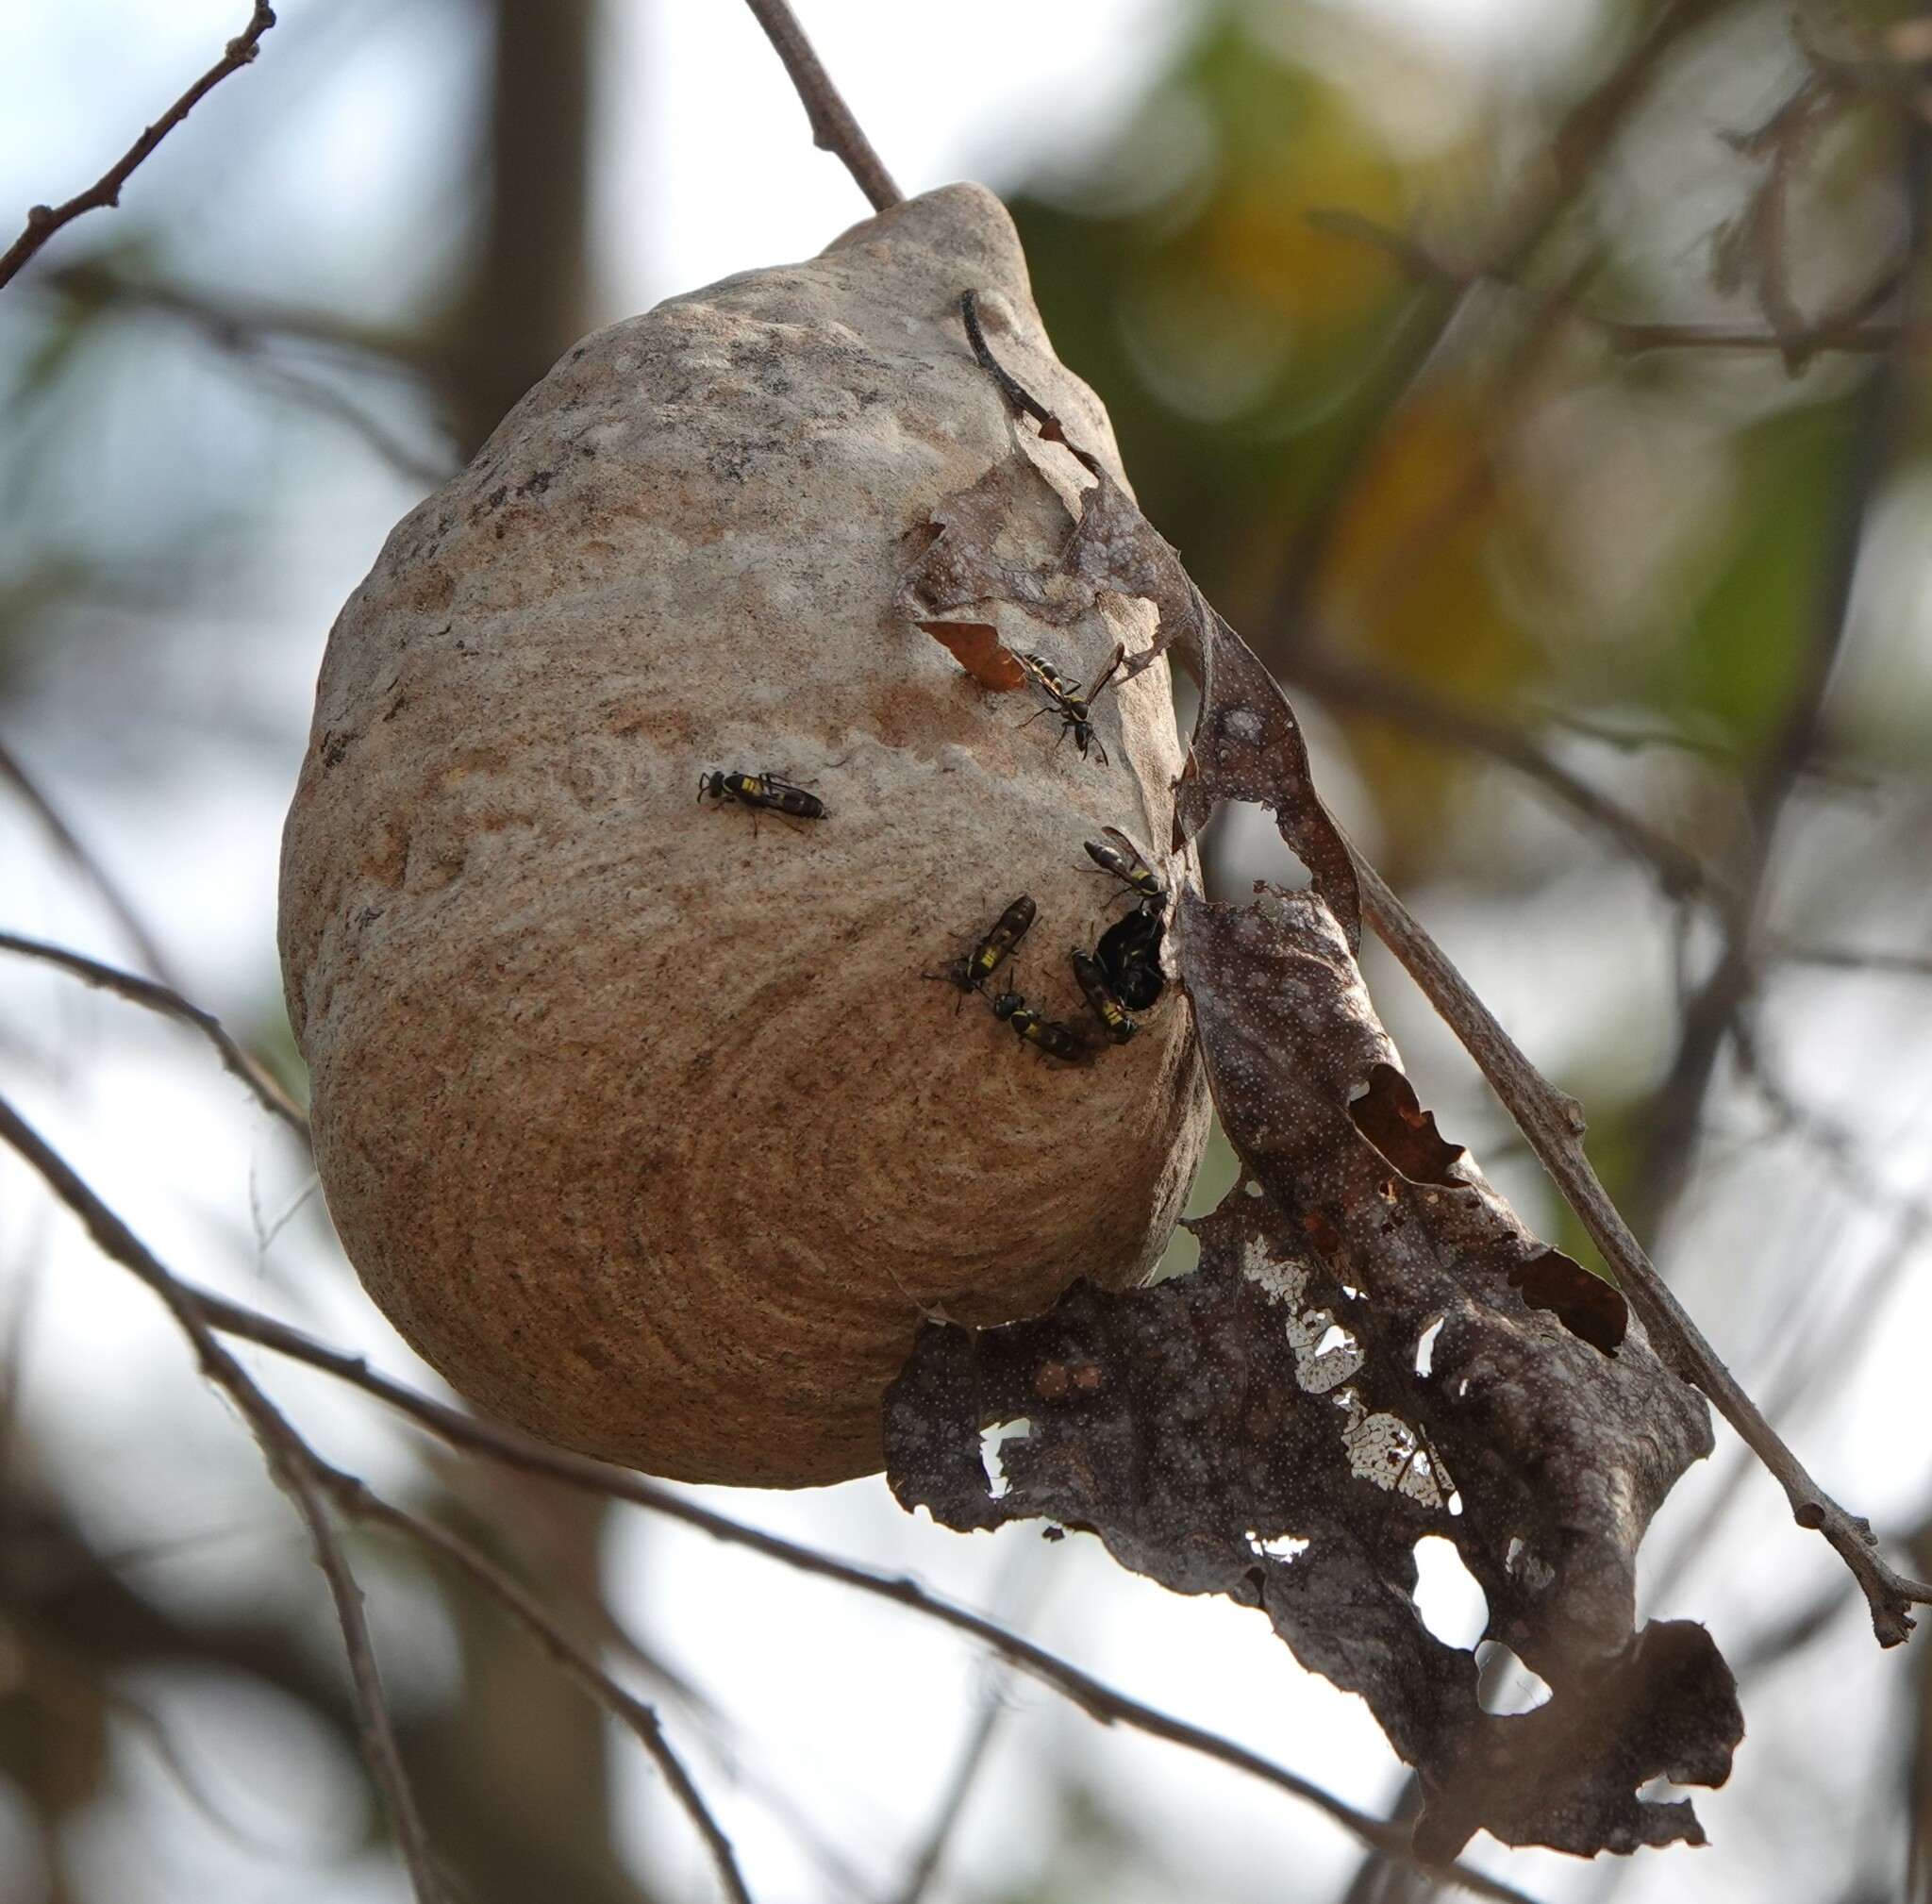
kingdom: Animalia
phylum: Arthropoda
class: Insecta
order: Hymenoptera
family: Eumenidae
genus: Polybia
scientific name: Polybia occidentalis
